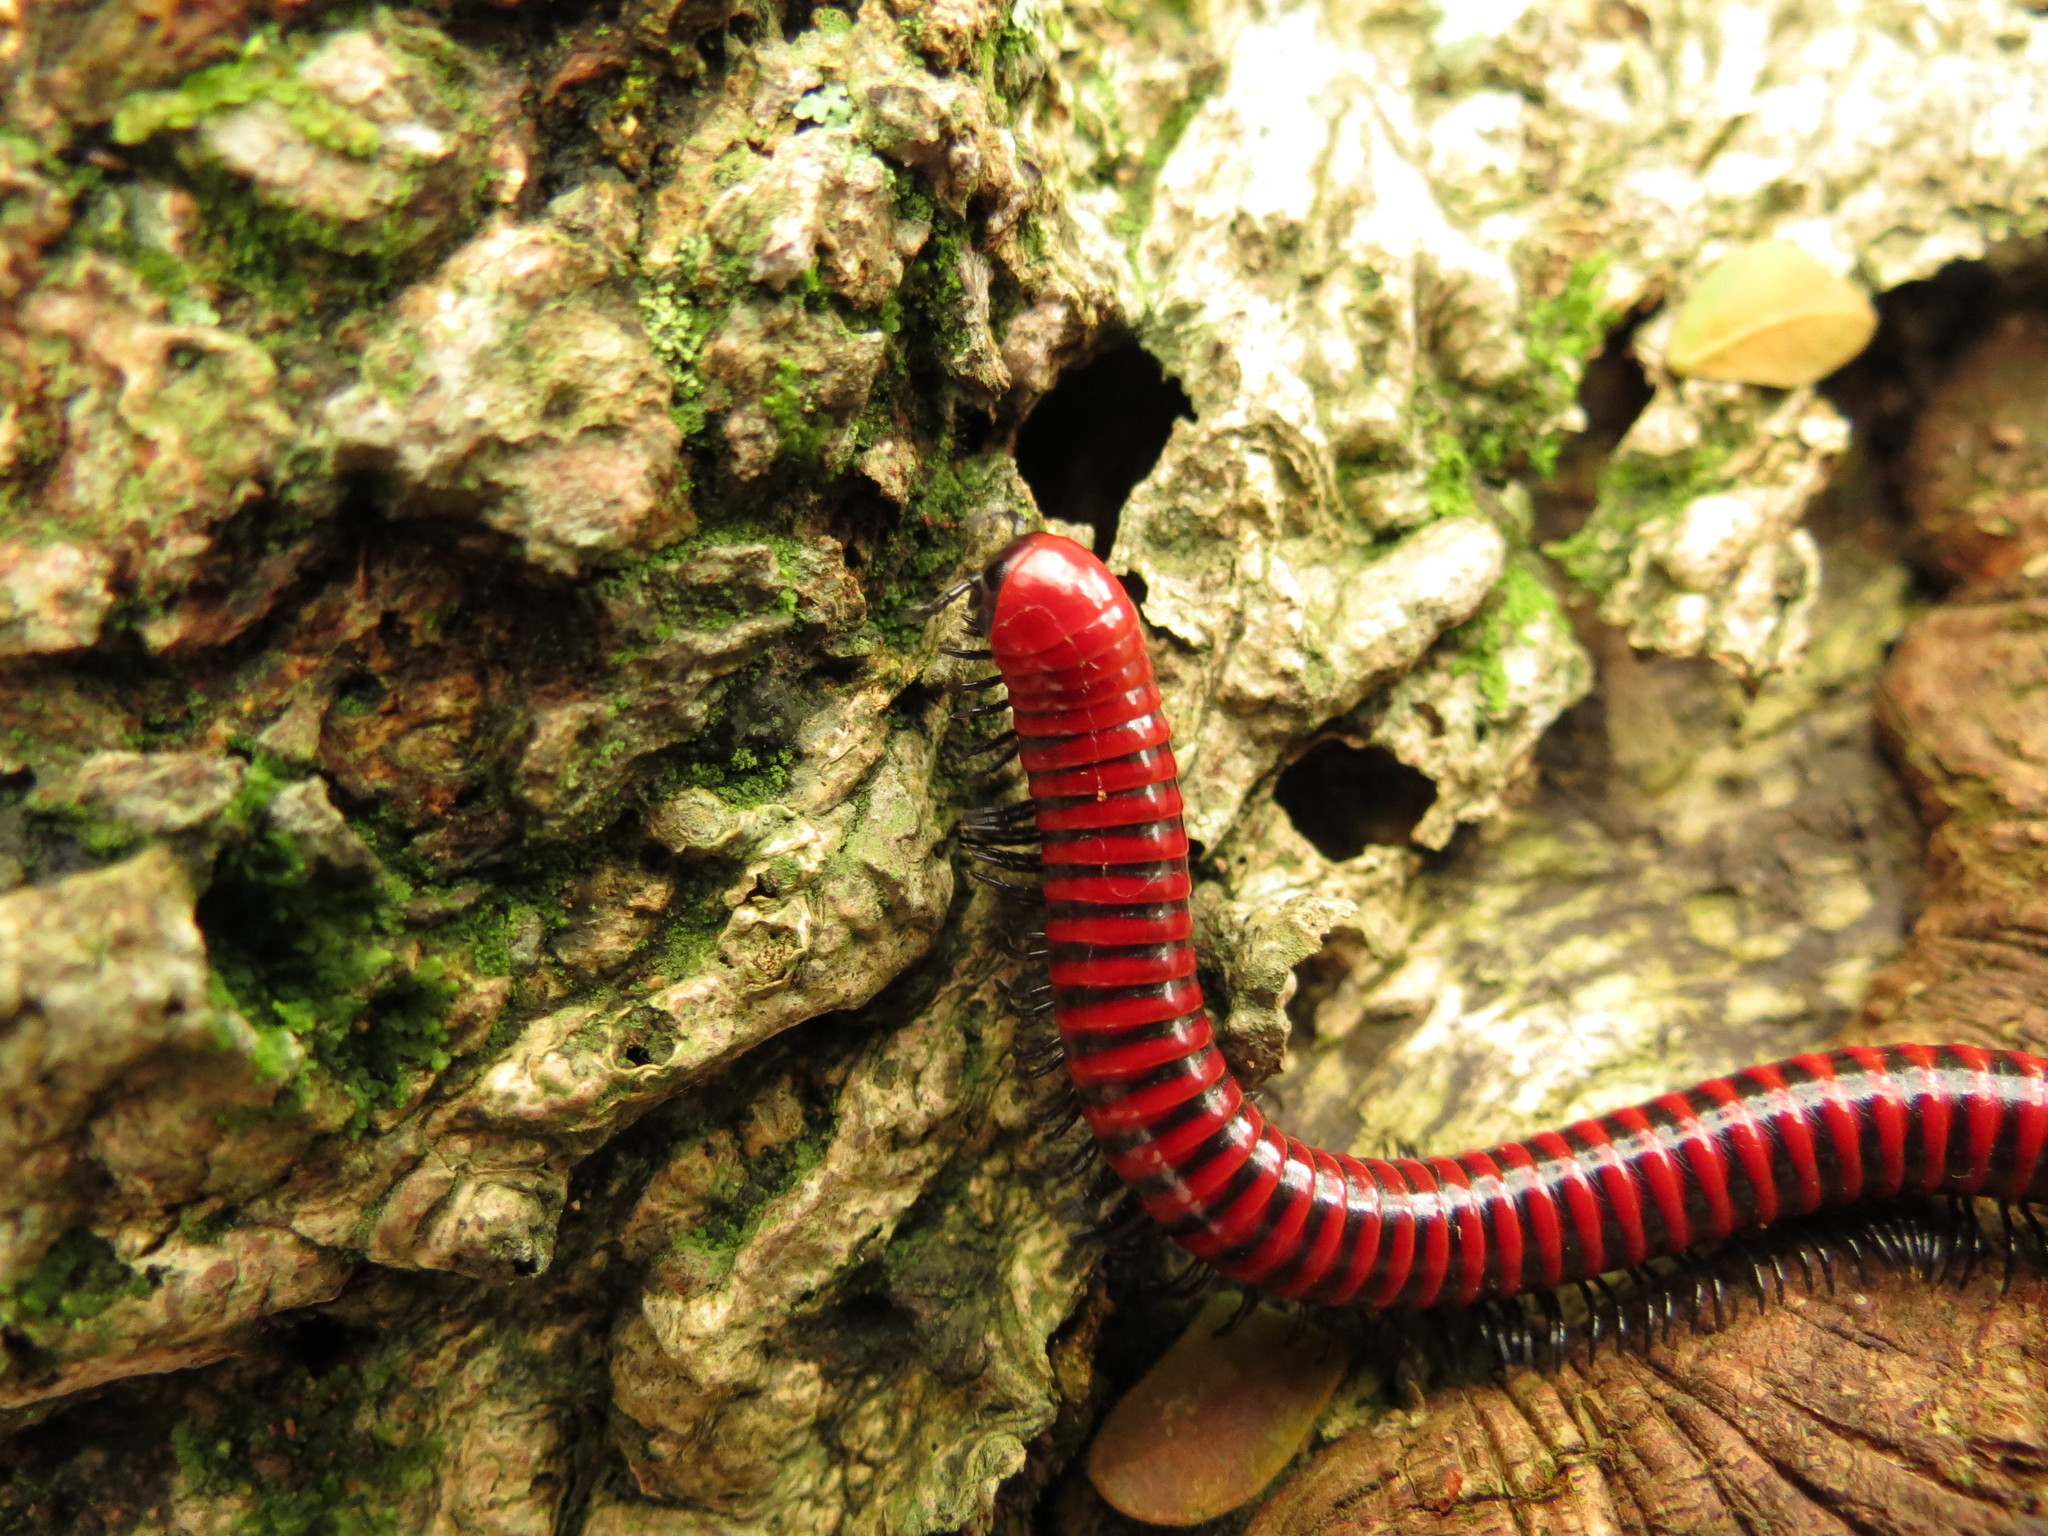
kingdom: Animalia
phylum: Arthropoda
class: Diplopoda
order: Spirobolida
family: Pachybolidae
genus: Centrobolus
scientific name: Centrobolus anulatus
